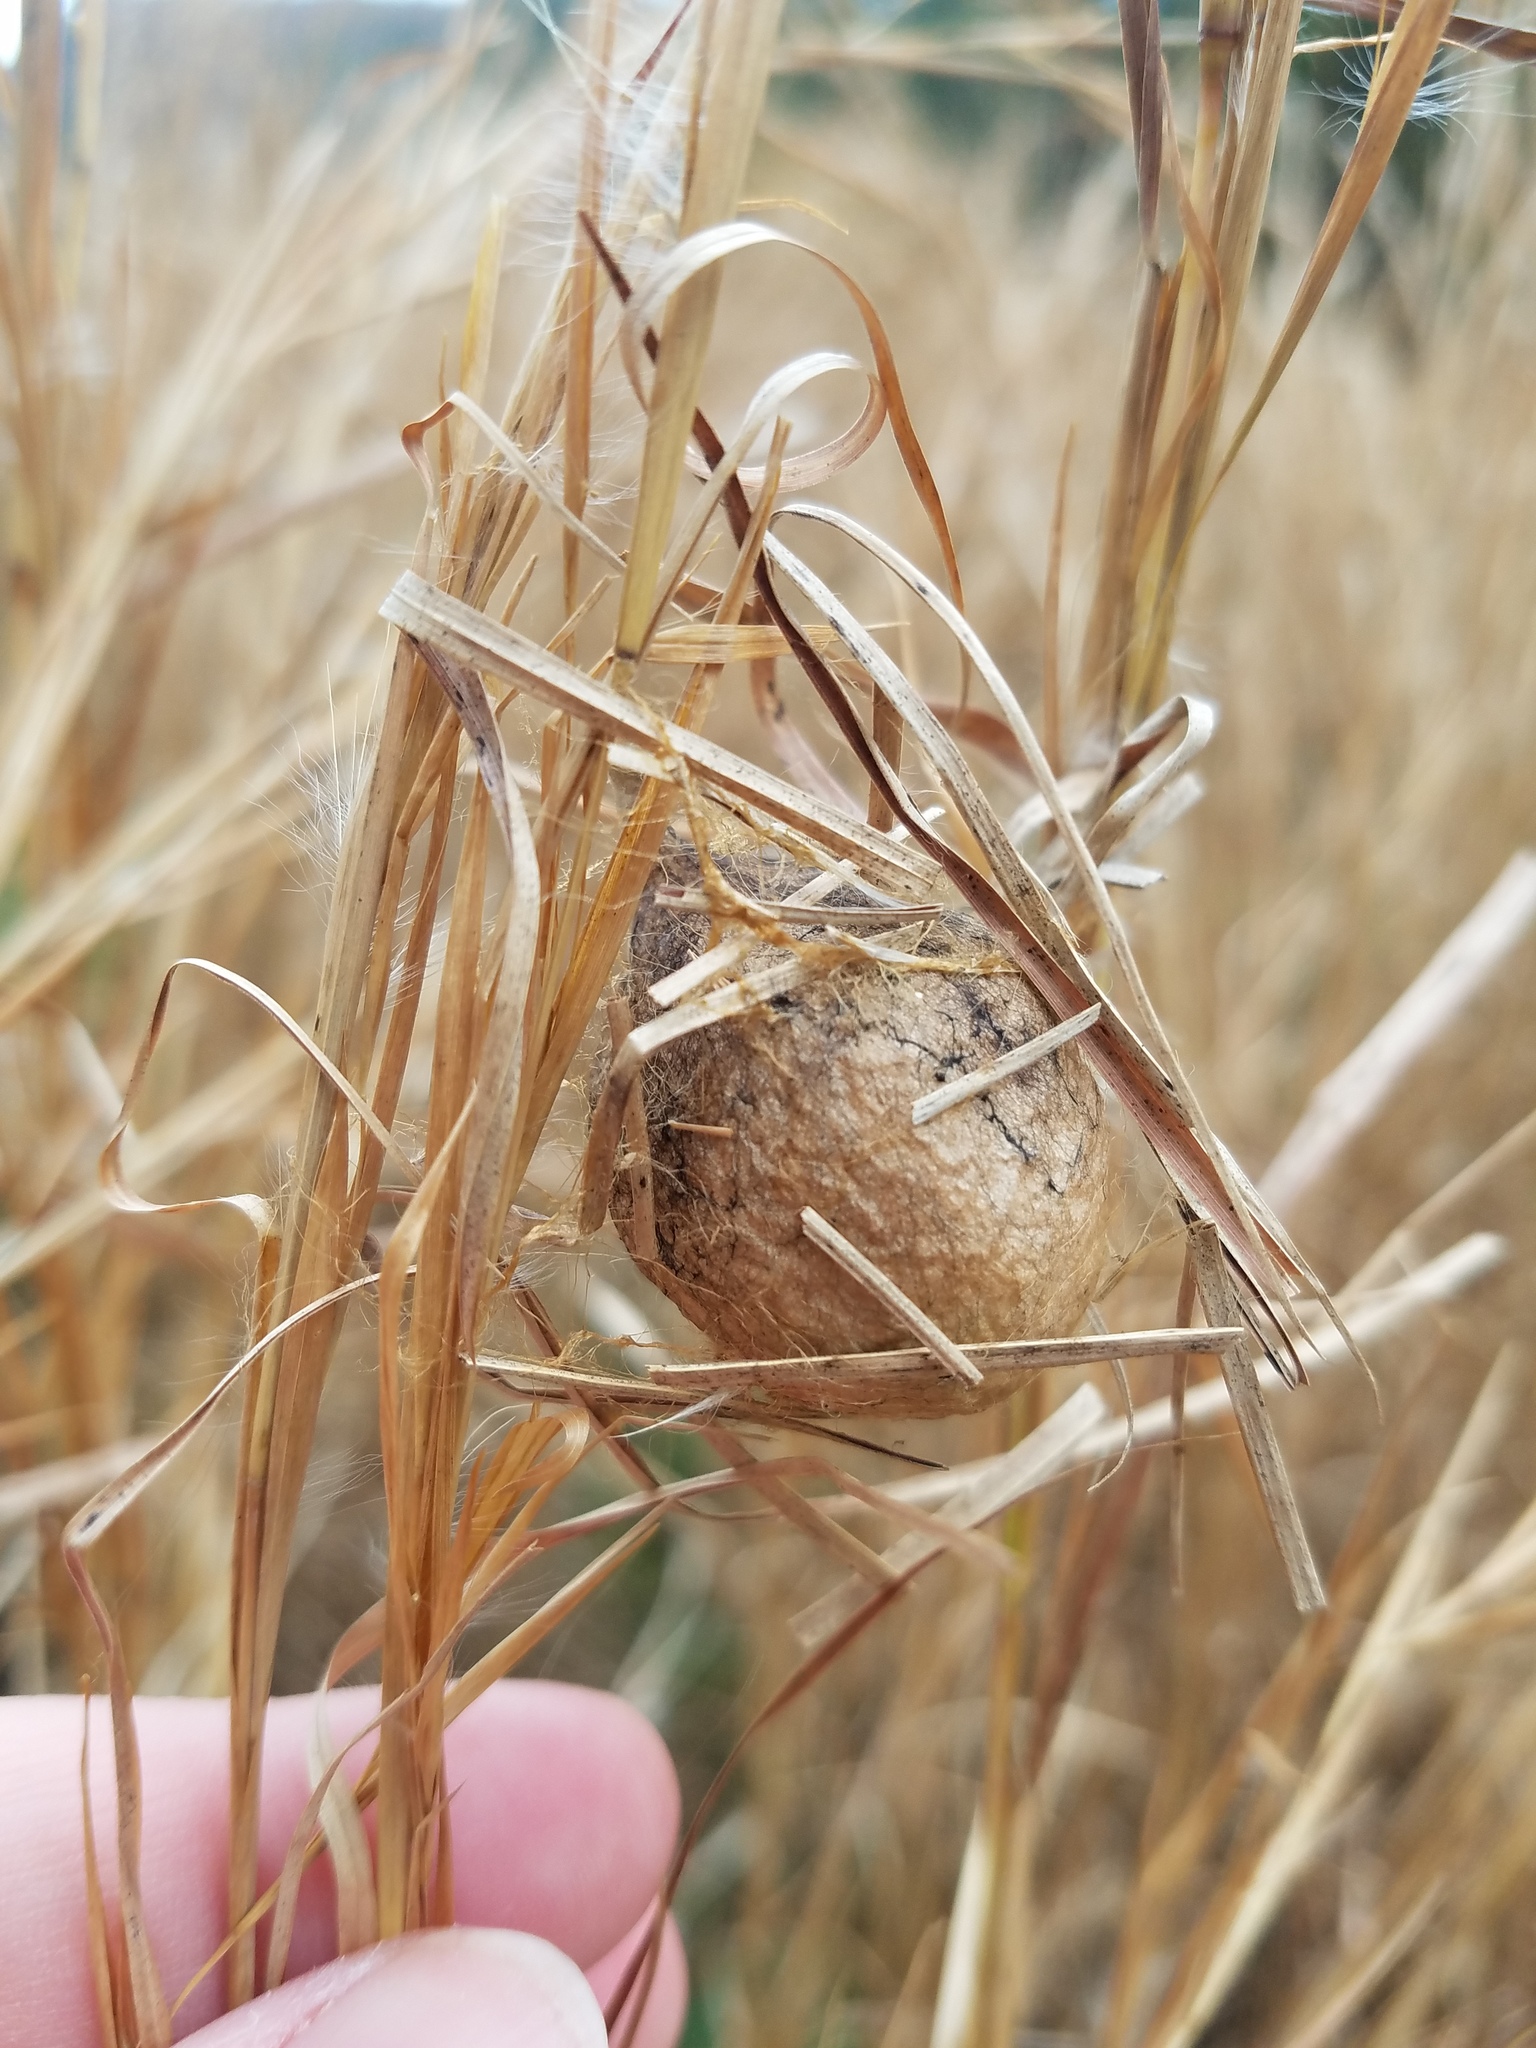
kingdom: Animalia
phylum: Arthropoda
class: Arachnida
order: Araneae
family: Oxyopidae
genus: Peucetia
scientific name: Peucetia viridans
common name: Lynx spiders
